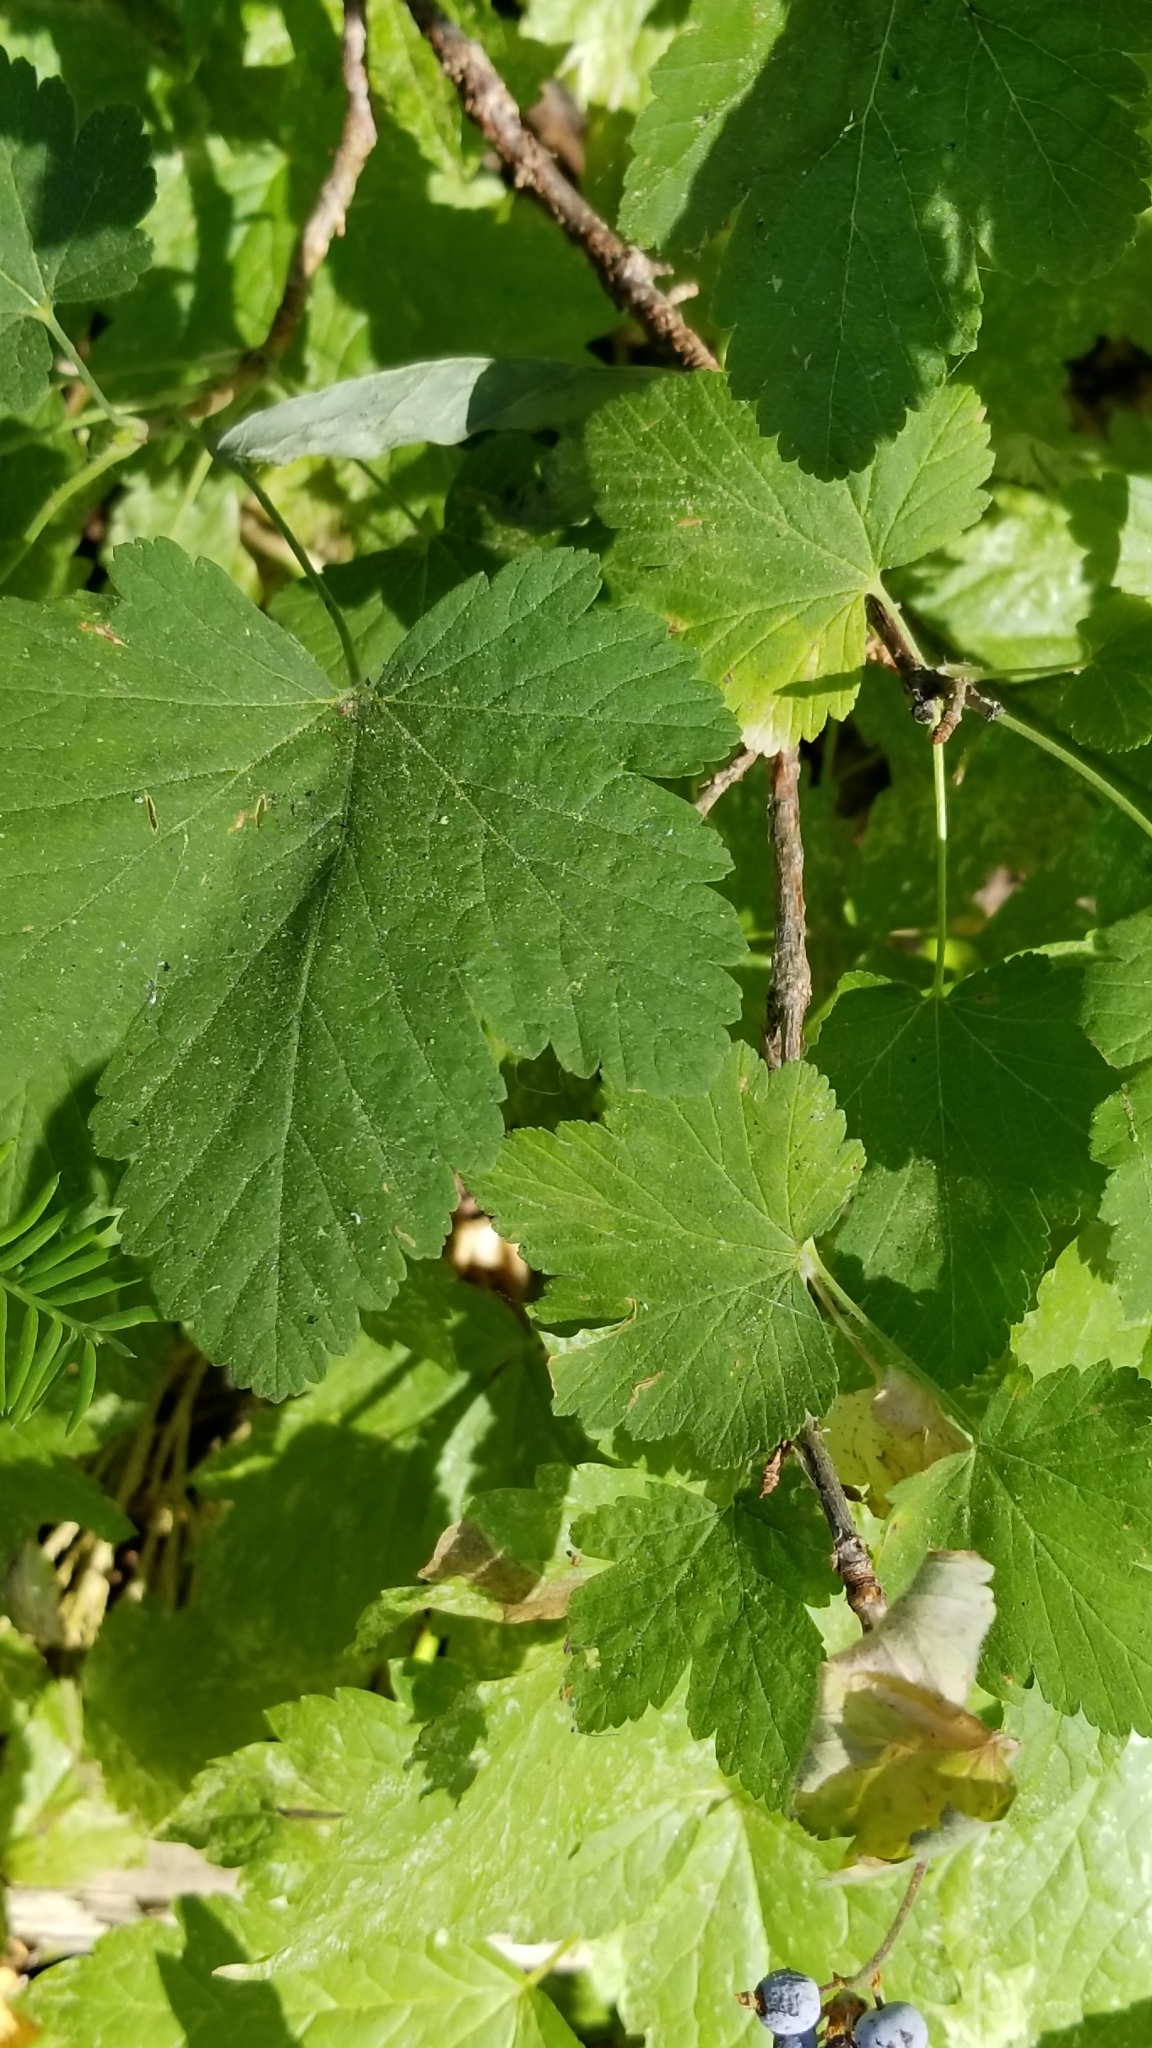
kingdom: Plantae
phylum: Tracheophyta
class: Magnoliopsida
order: Saxifragales
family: Grossulariaceae
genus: Ribes
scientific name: Ribes nevadense
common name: Mountain pink currant
